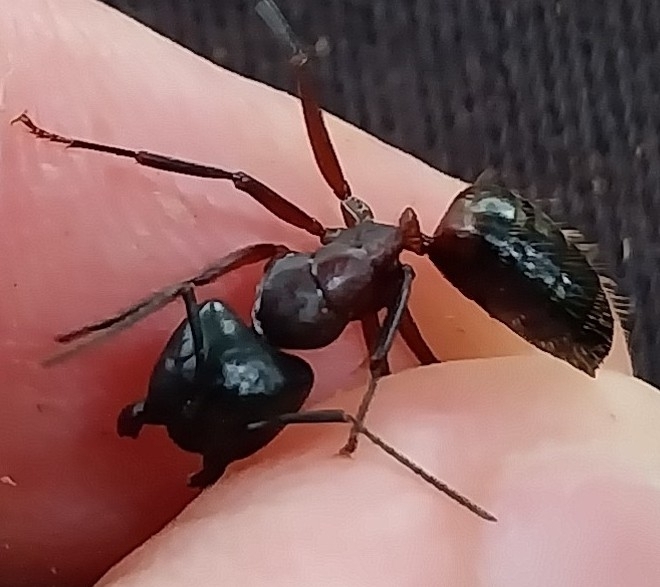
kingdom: Animalia
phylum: Arthropoda
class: Insecta
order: Hymenoptera
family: Formicidae
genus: Camponotus
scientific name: Camponotus ligniperdus
